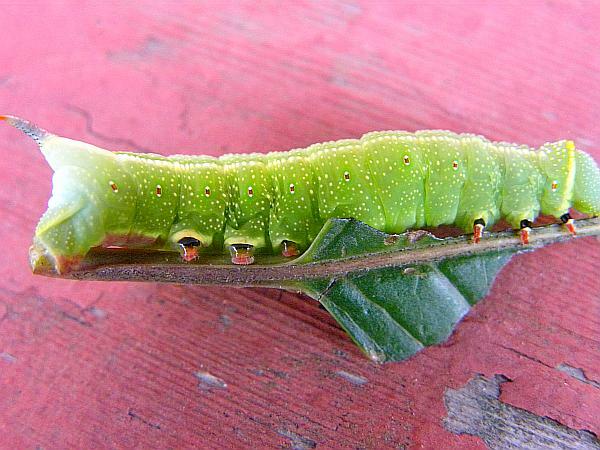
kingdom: Animalia
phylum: Arthropoda
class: Insecta
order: Lepidoptera
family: Sphingidae
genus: Hemaris
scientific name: Hemaris thysbe
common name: Common clear-wing
